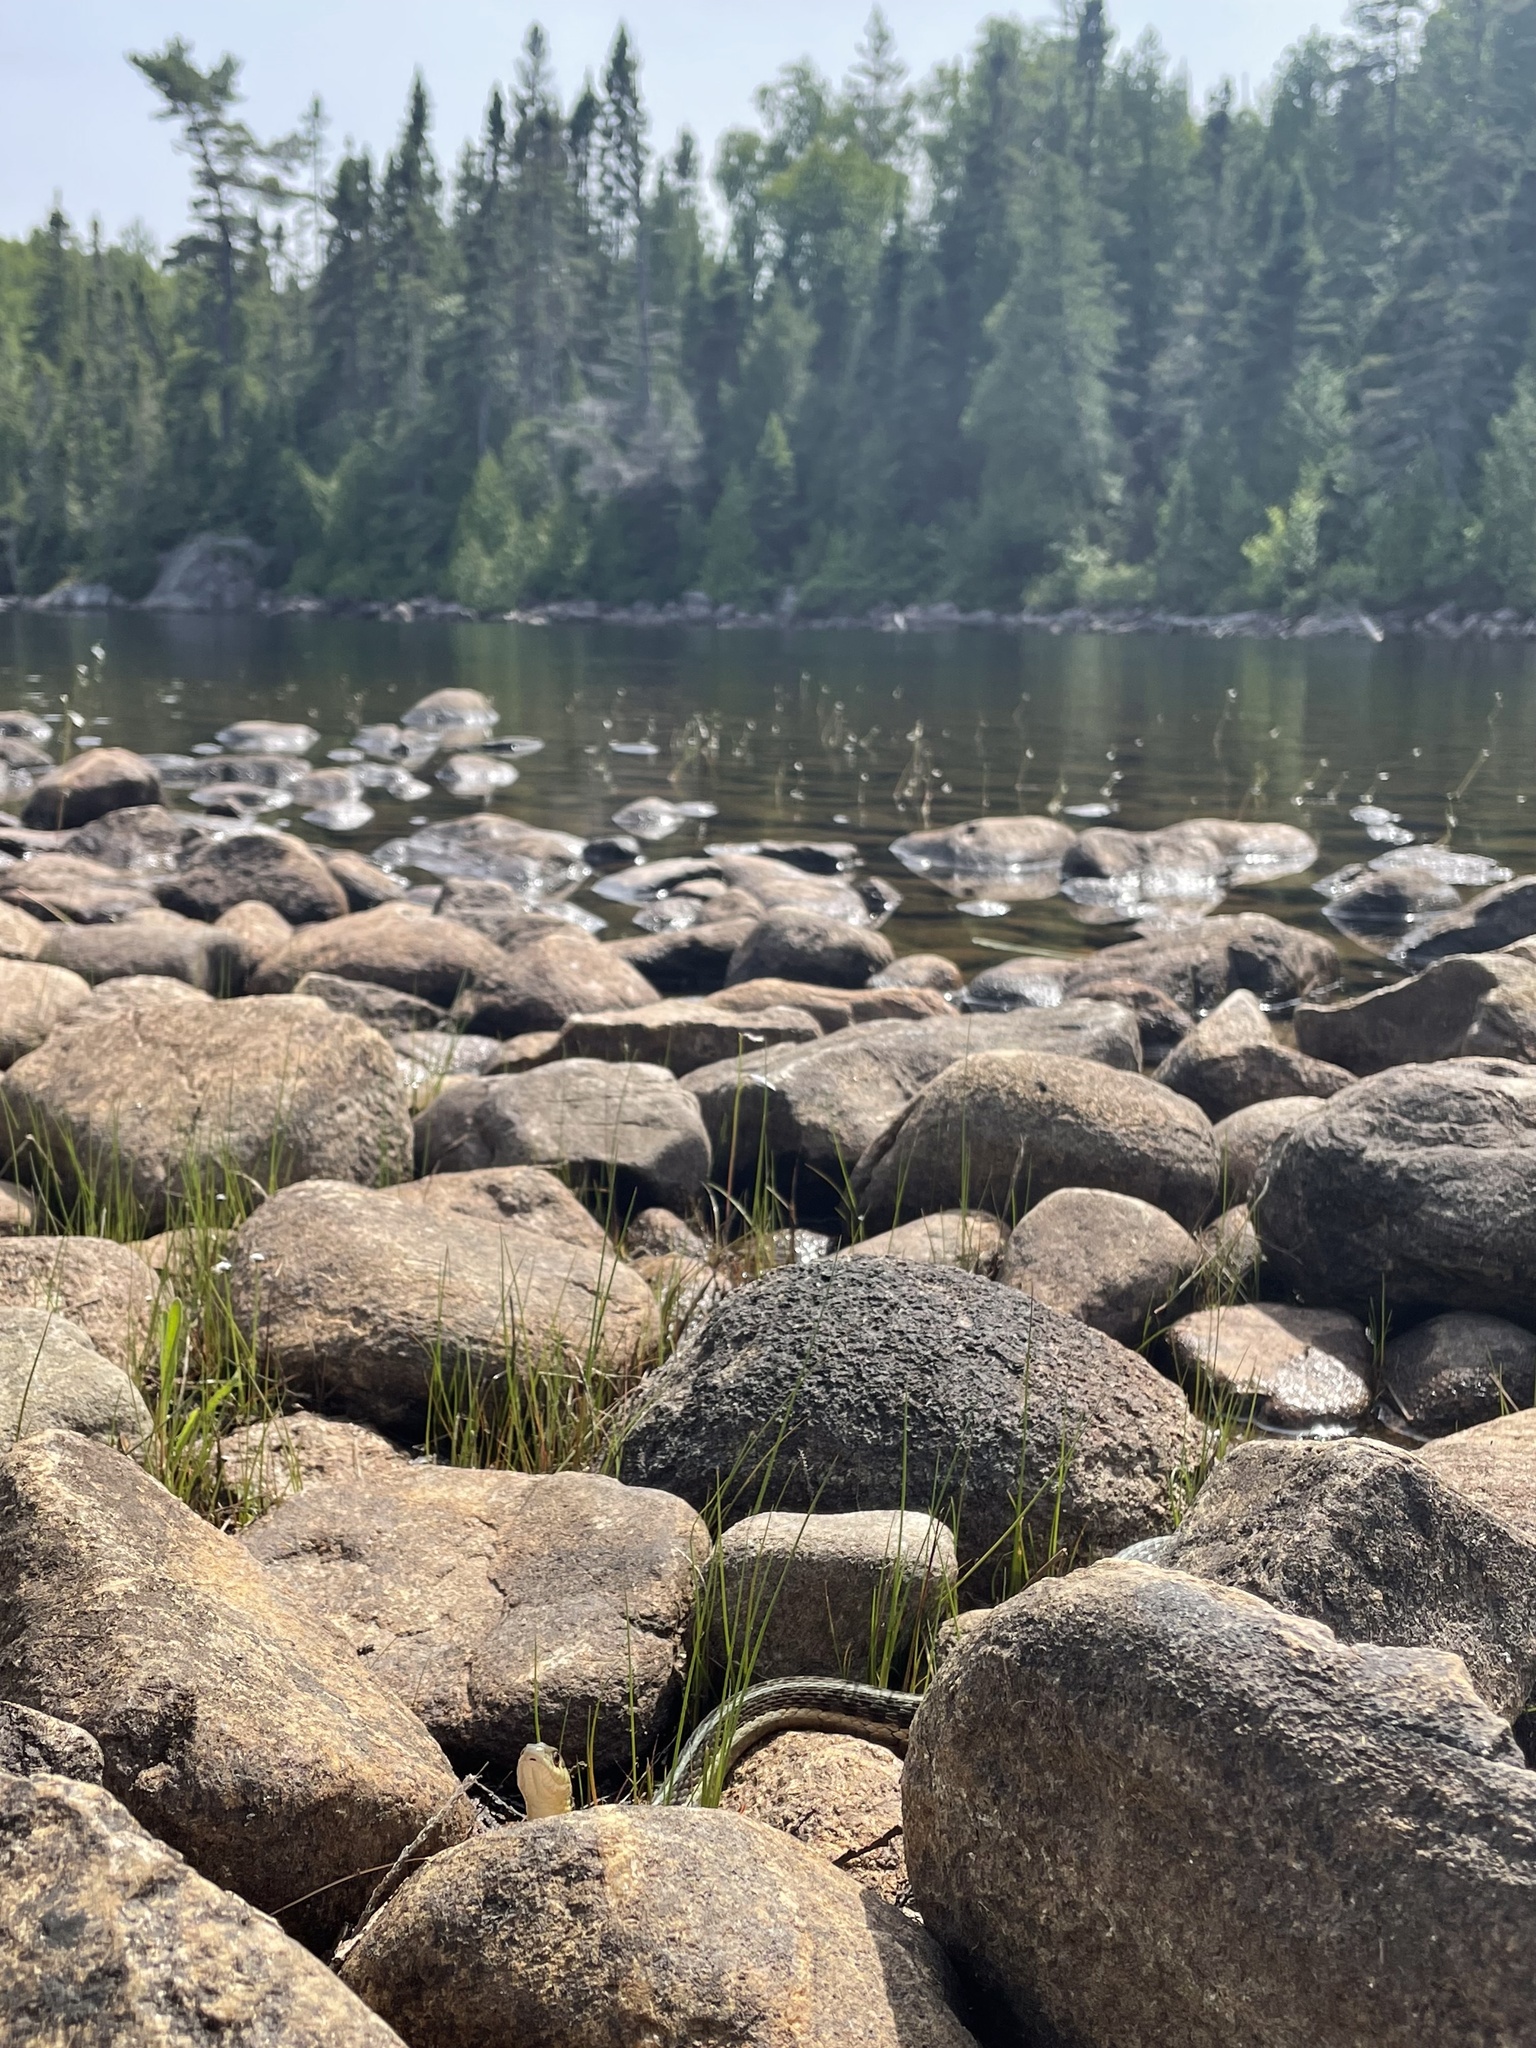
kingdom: Animalia
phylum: Chordata
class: Squamata
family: Colubridae
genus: Thamnophis
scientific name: Thamnophis sirtalis
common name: Common garter snake
